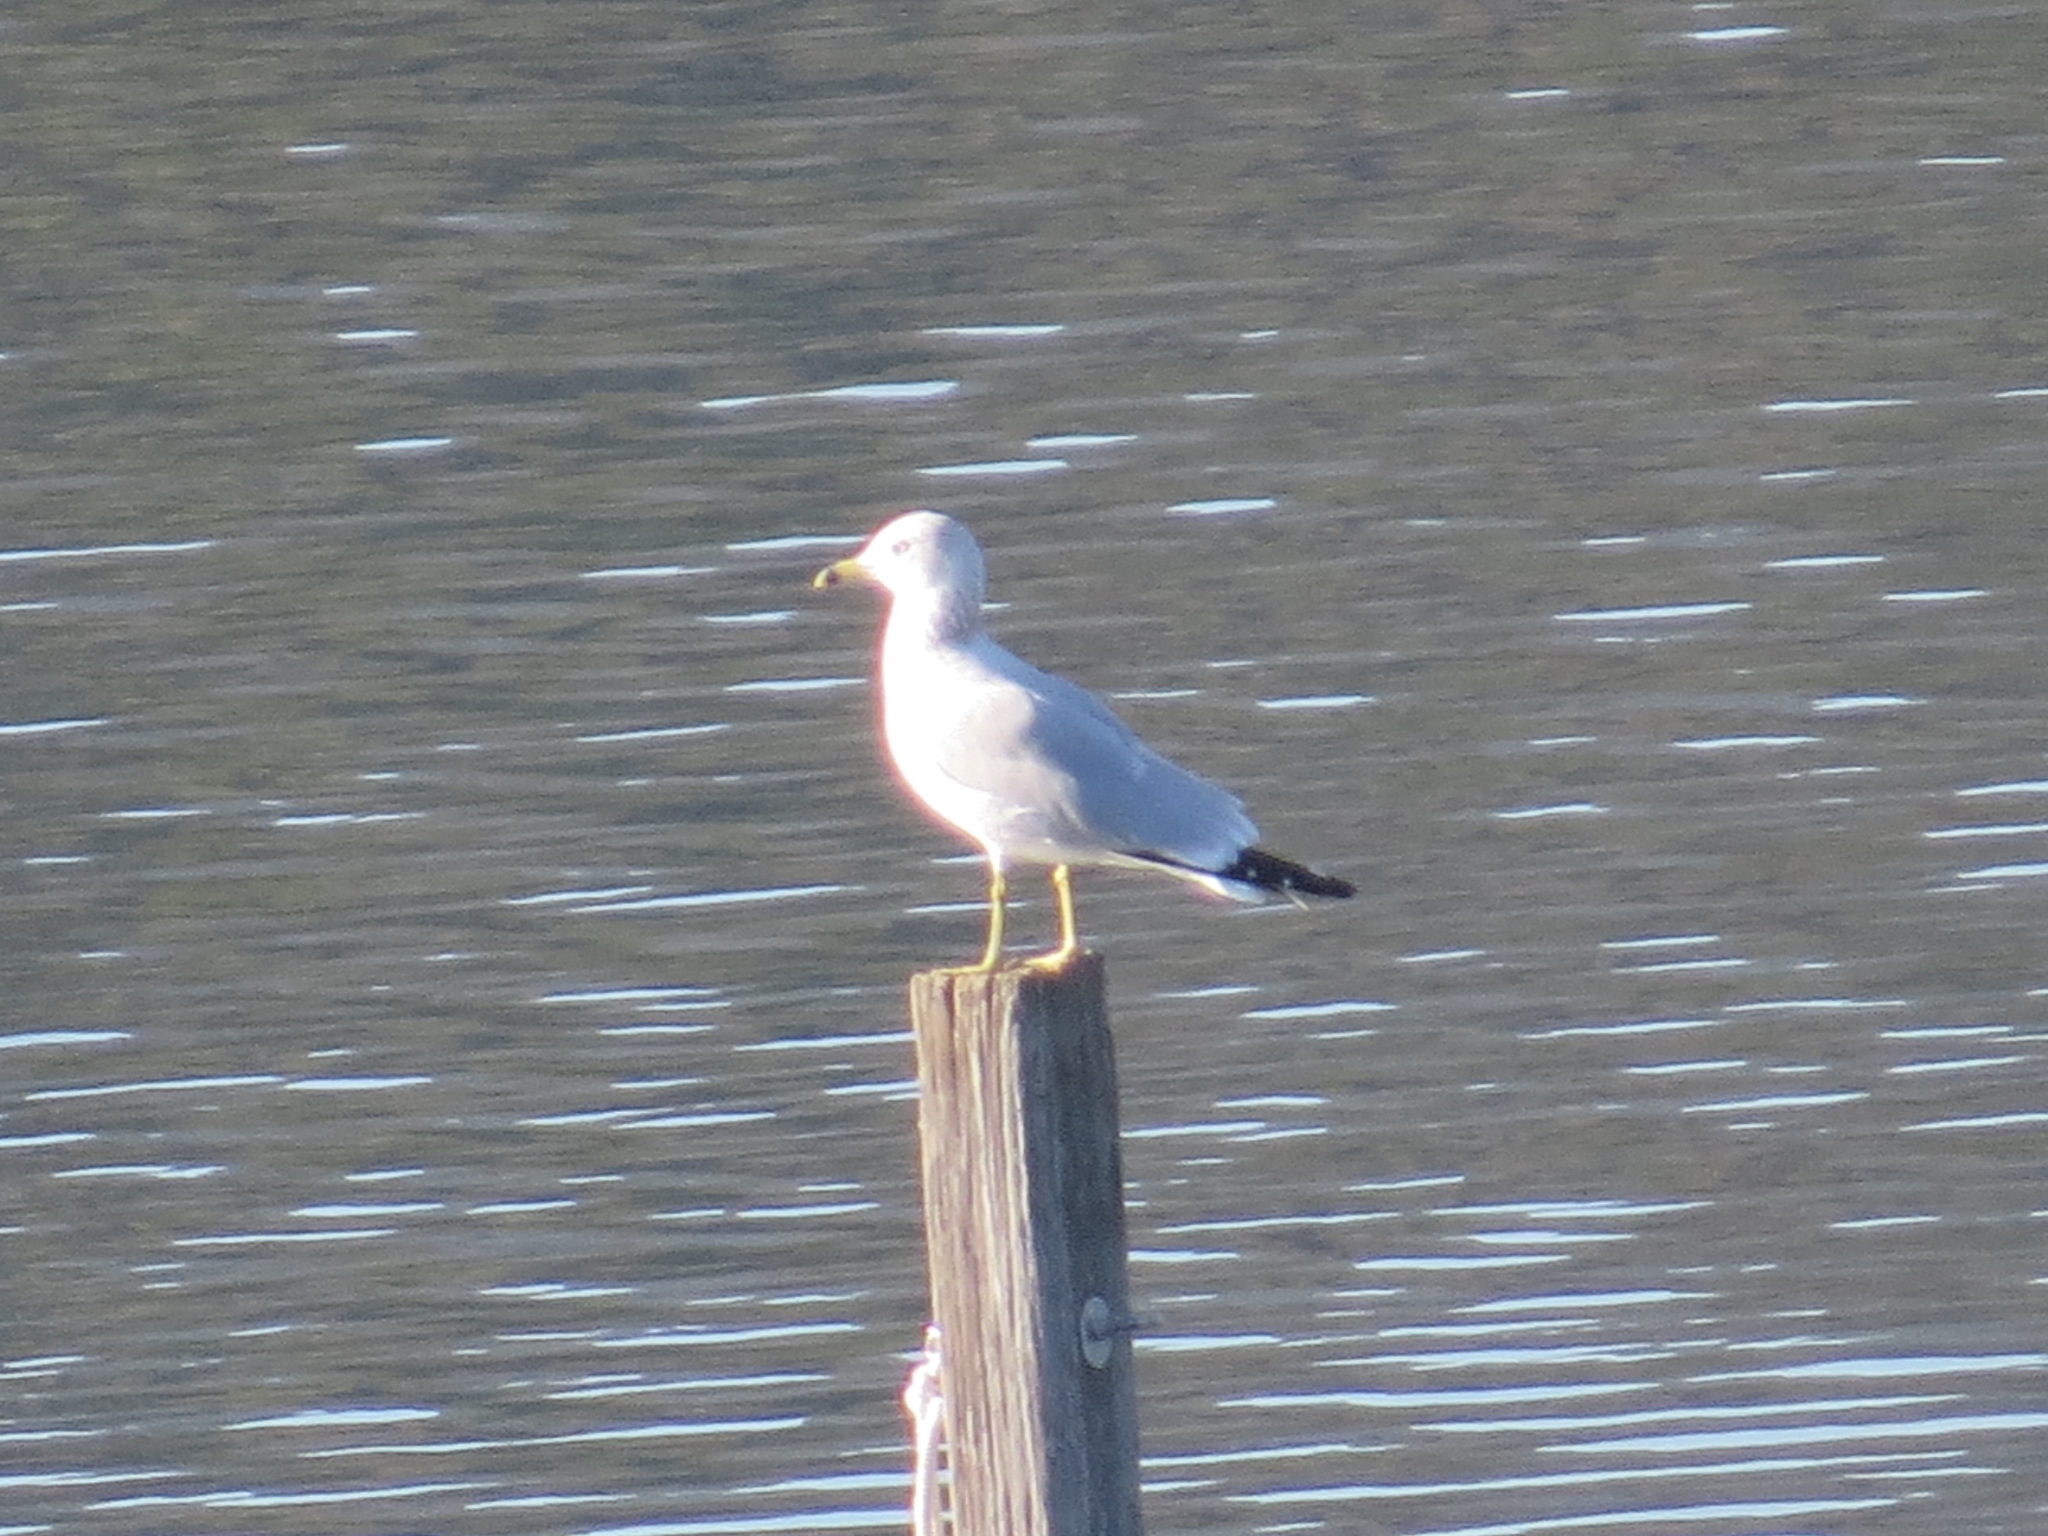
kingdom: Animalia
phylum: Chordata
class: Aves
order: Charadriiformes
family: Laridae
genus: Larus
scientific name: Larus delawarensis
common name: Ring-billed gull
